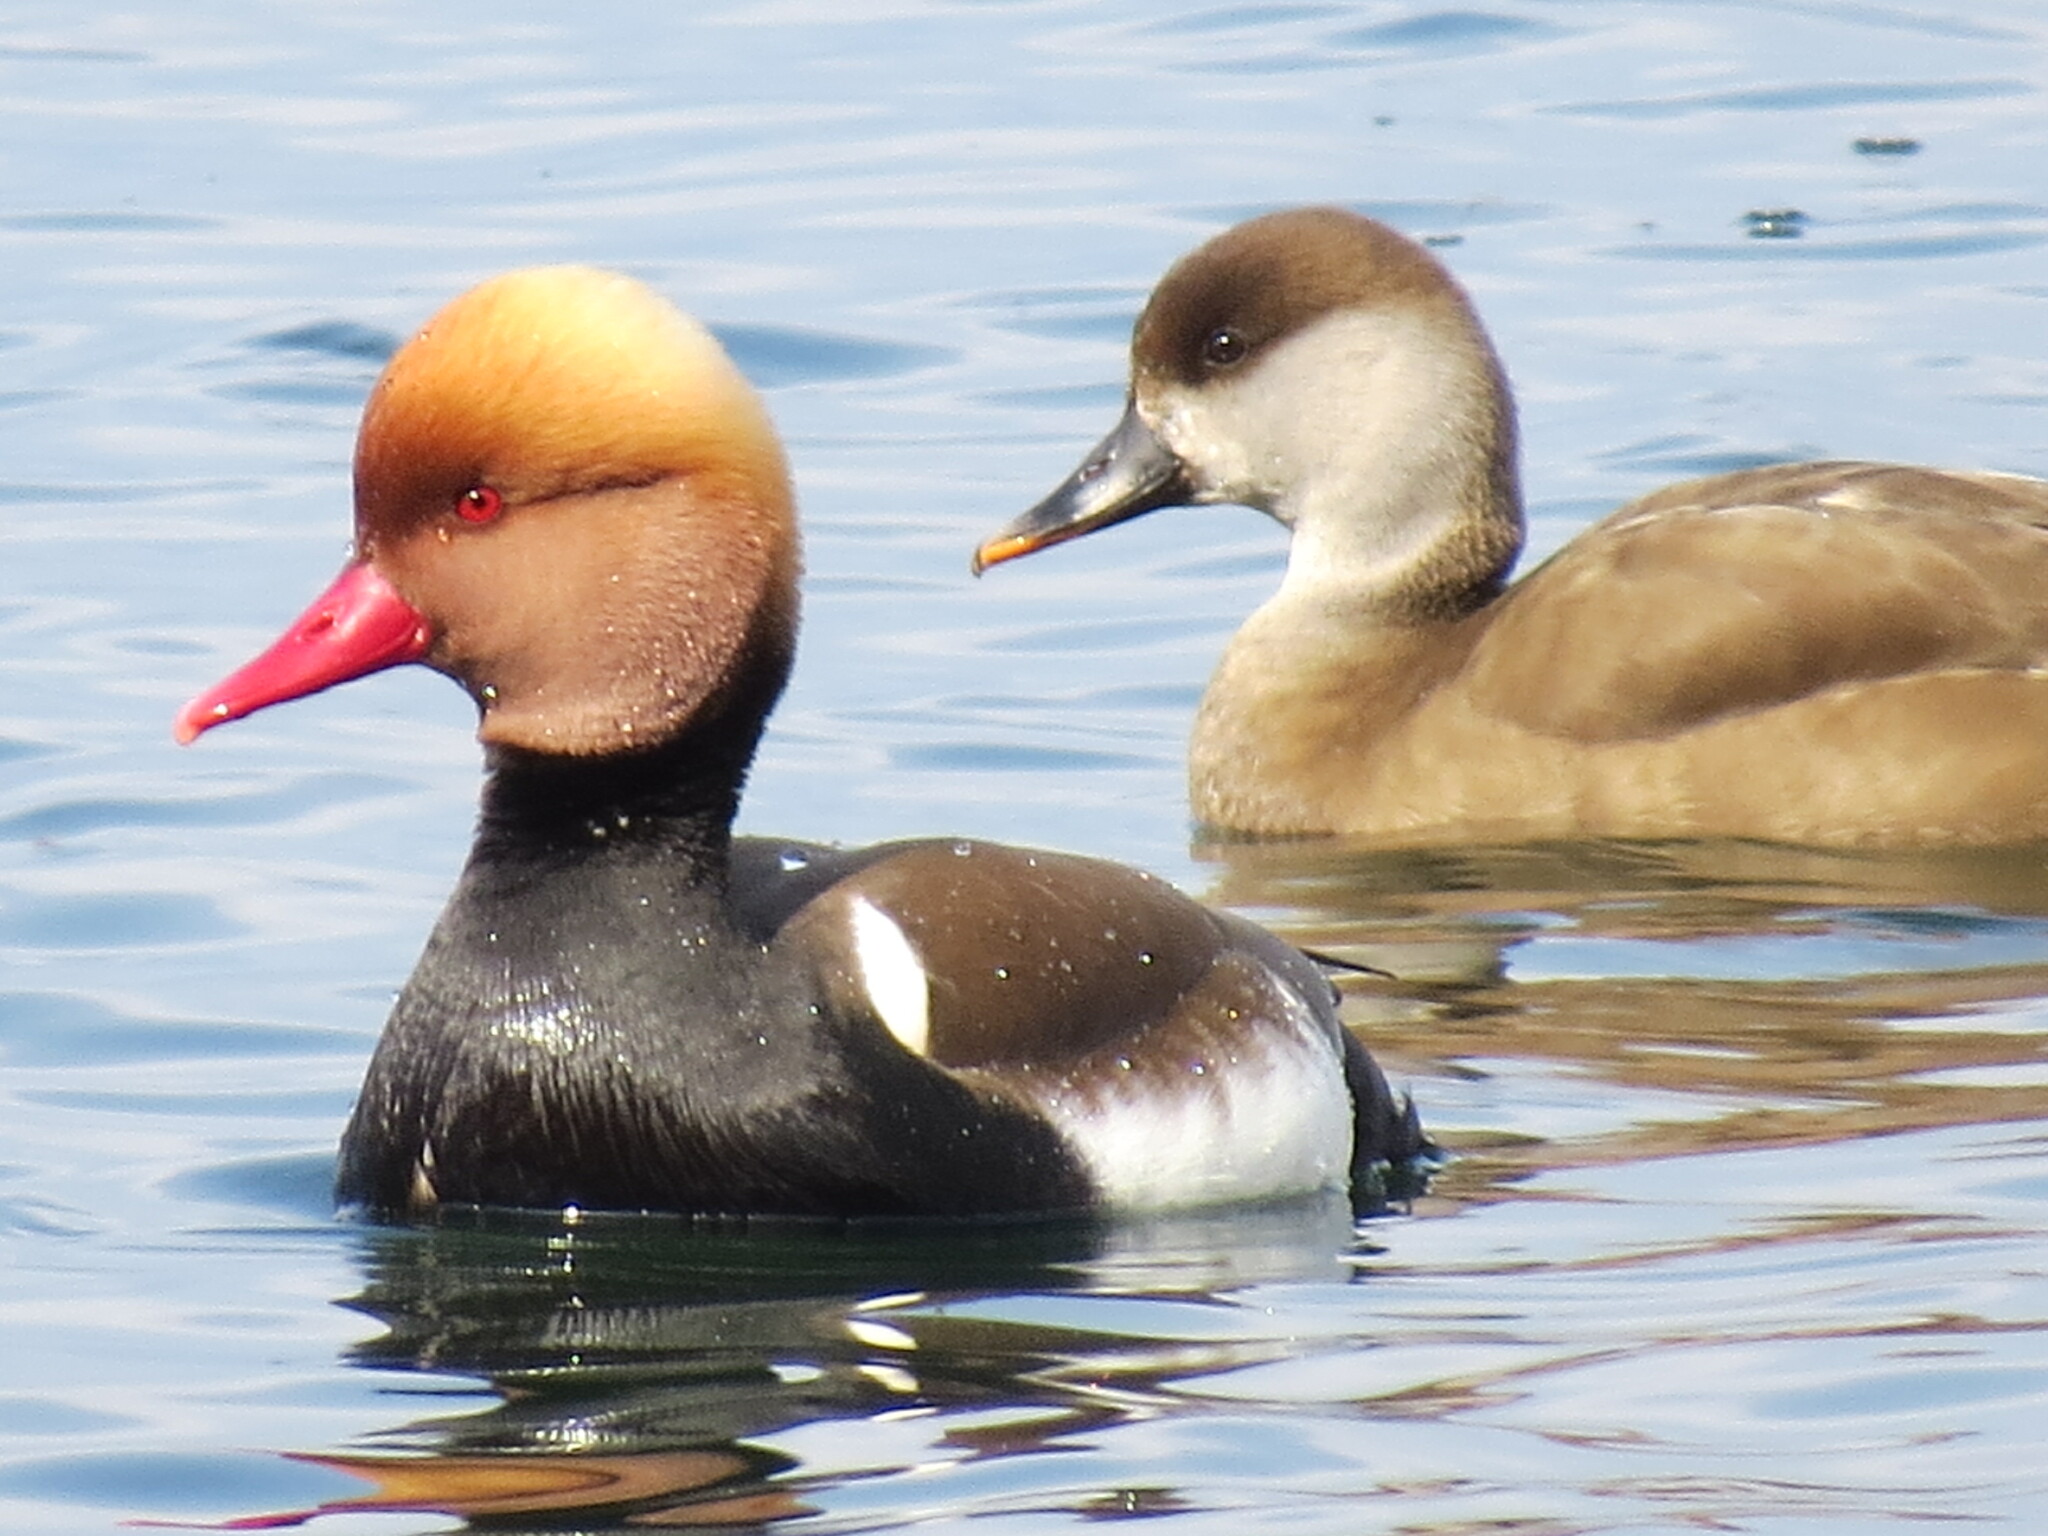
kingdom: Animalia
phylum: Chordata
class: Aves
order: Anseriformes
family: Anatidae
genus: Netta
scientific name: Netta rufina
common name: Red-crested pochard
